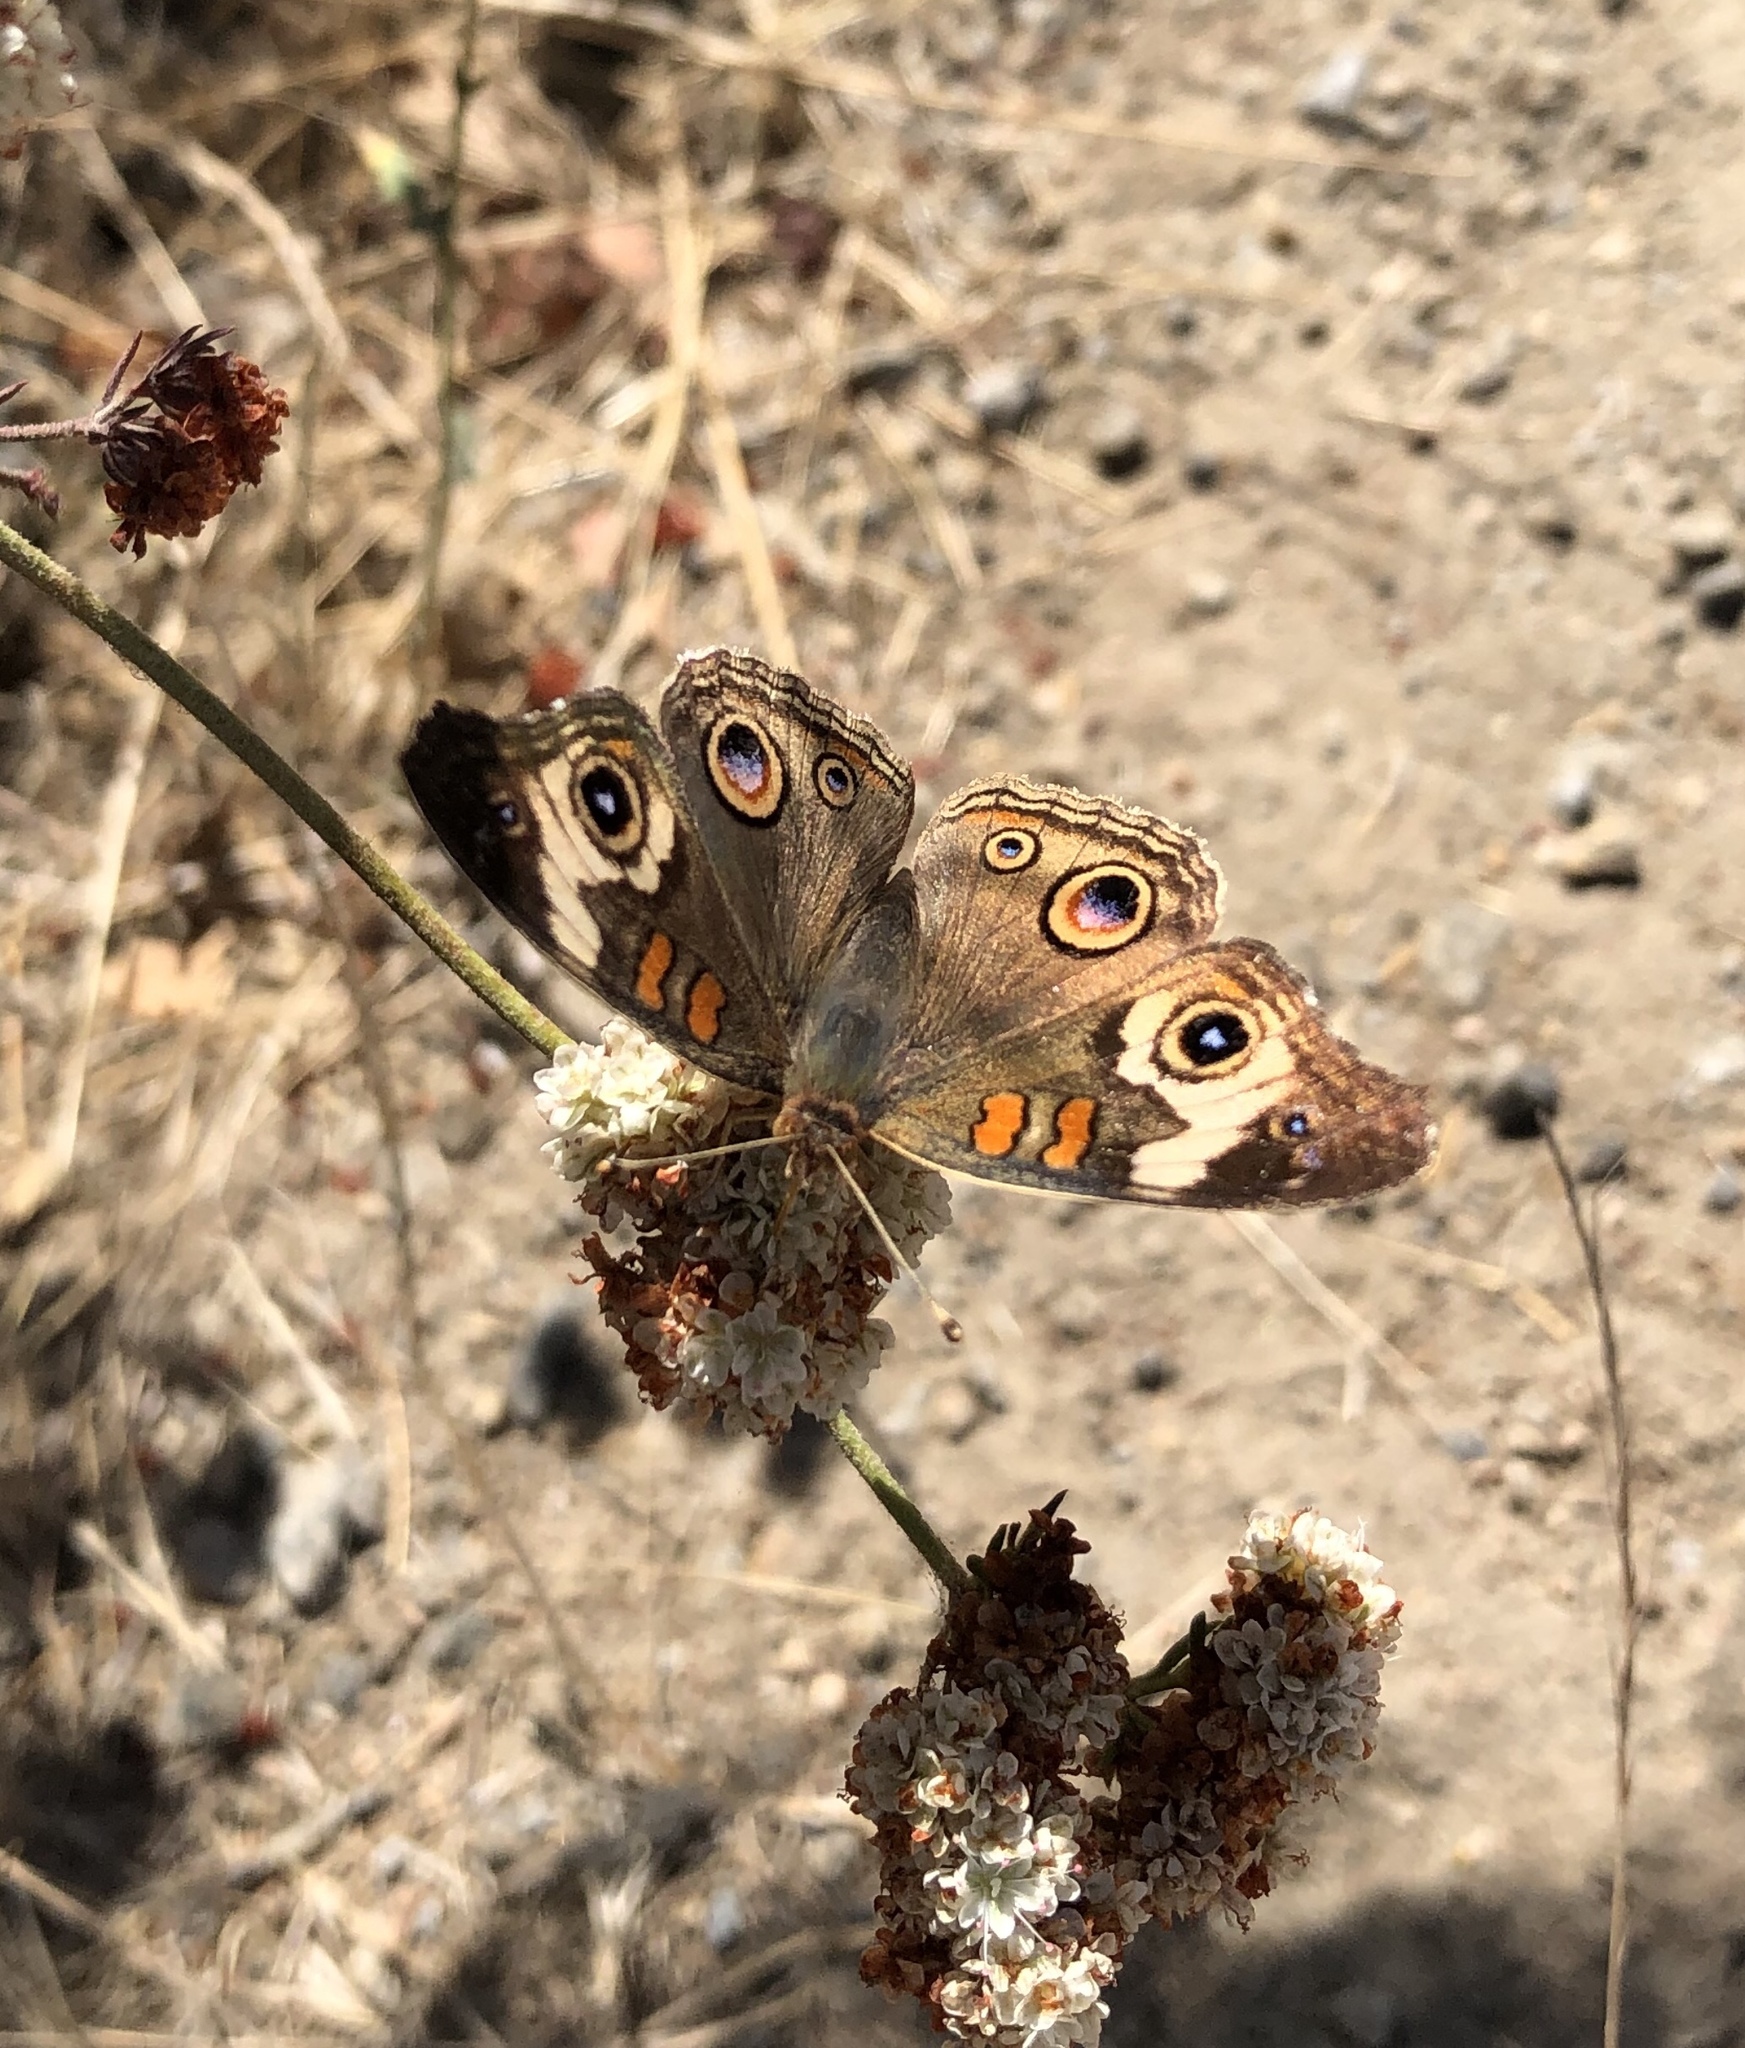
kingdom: Animalia
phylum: Arthropoda
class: Insecta
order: Lepidoptera
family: Nymphalidae
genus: Junonia
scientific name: Junonia grisea
